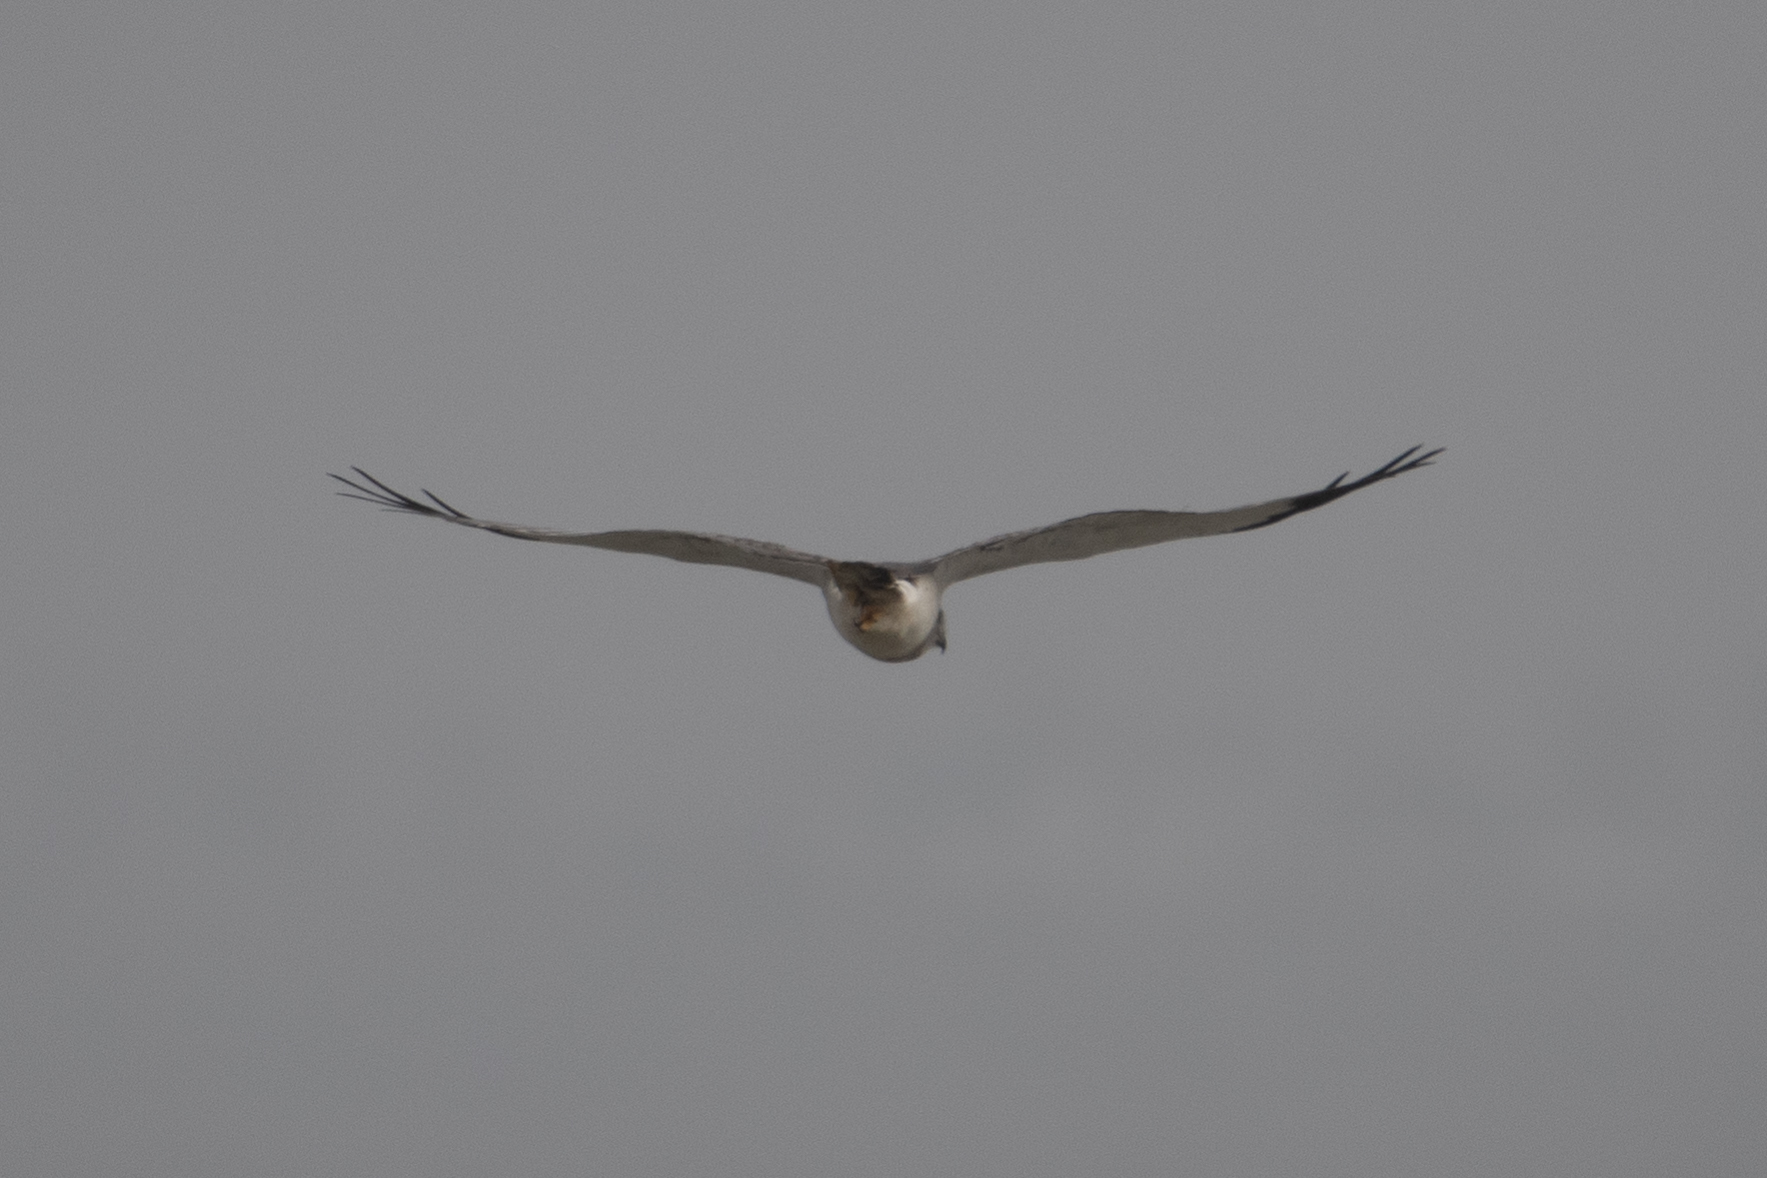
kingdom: Animalia
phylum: Chordata
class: Aves
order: Accipitriformes
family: Accipitridae
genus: Circus
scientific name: Circus cyaneus
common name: Hen harrier
